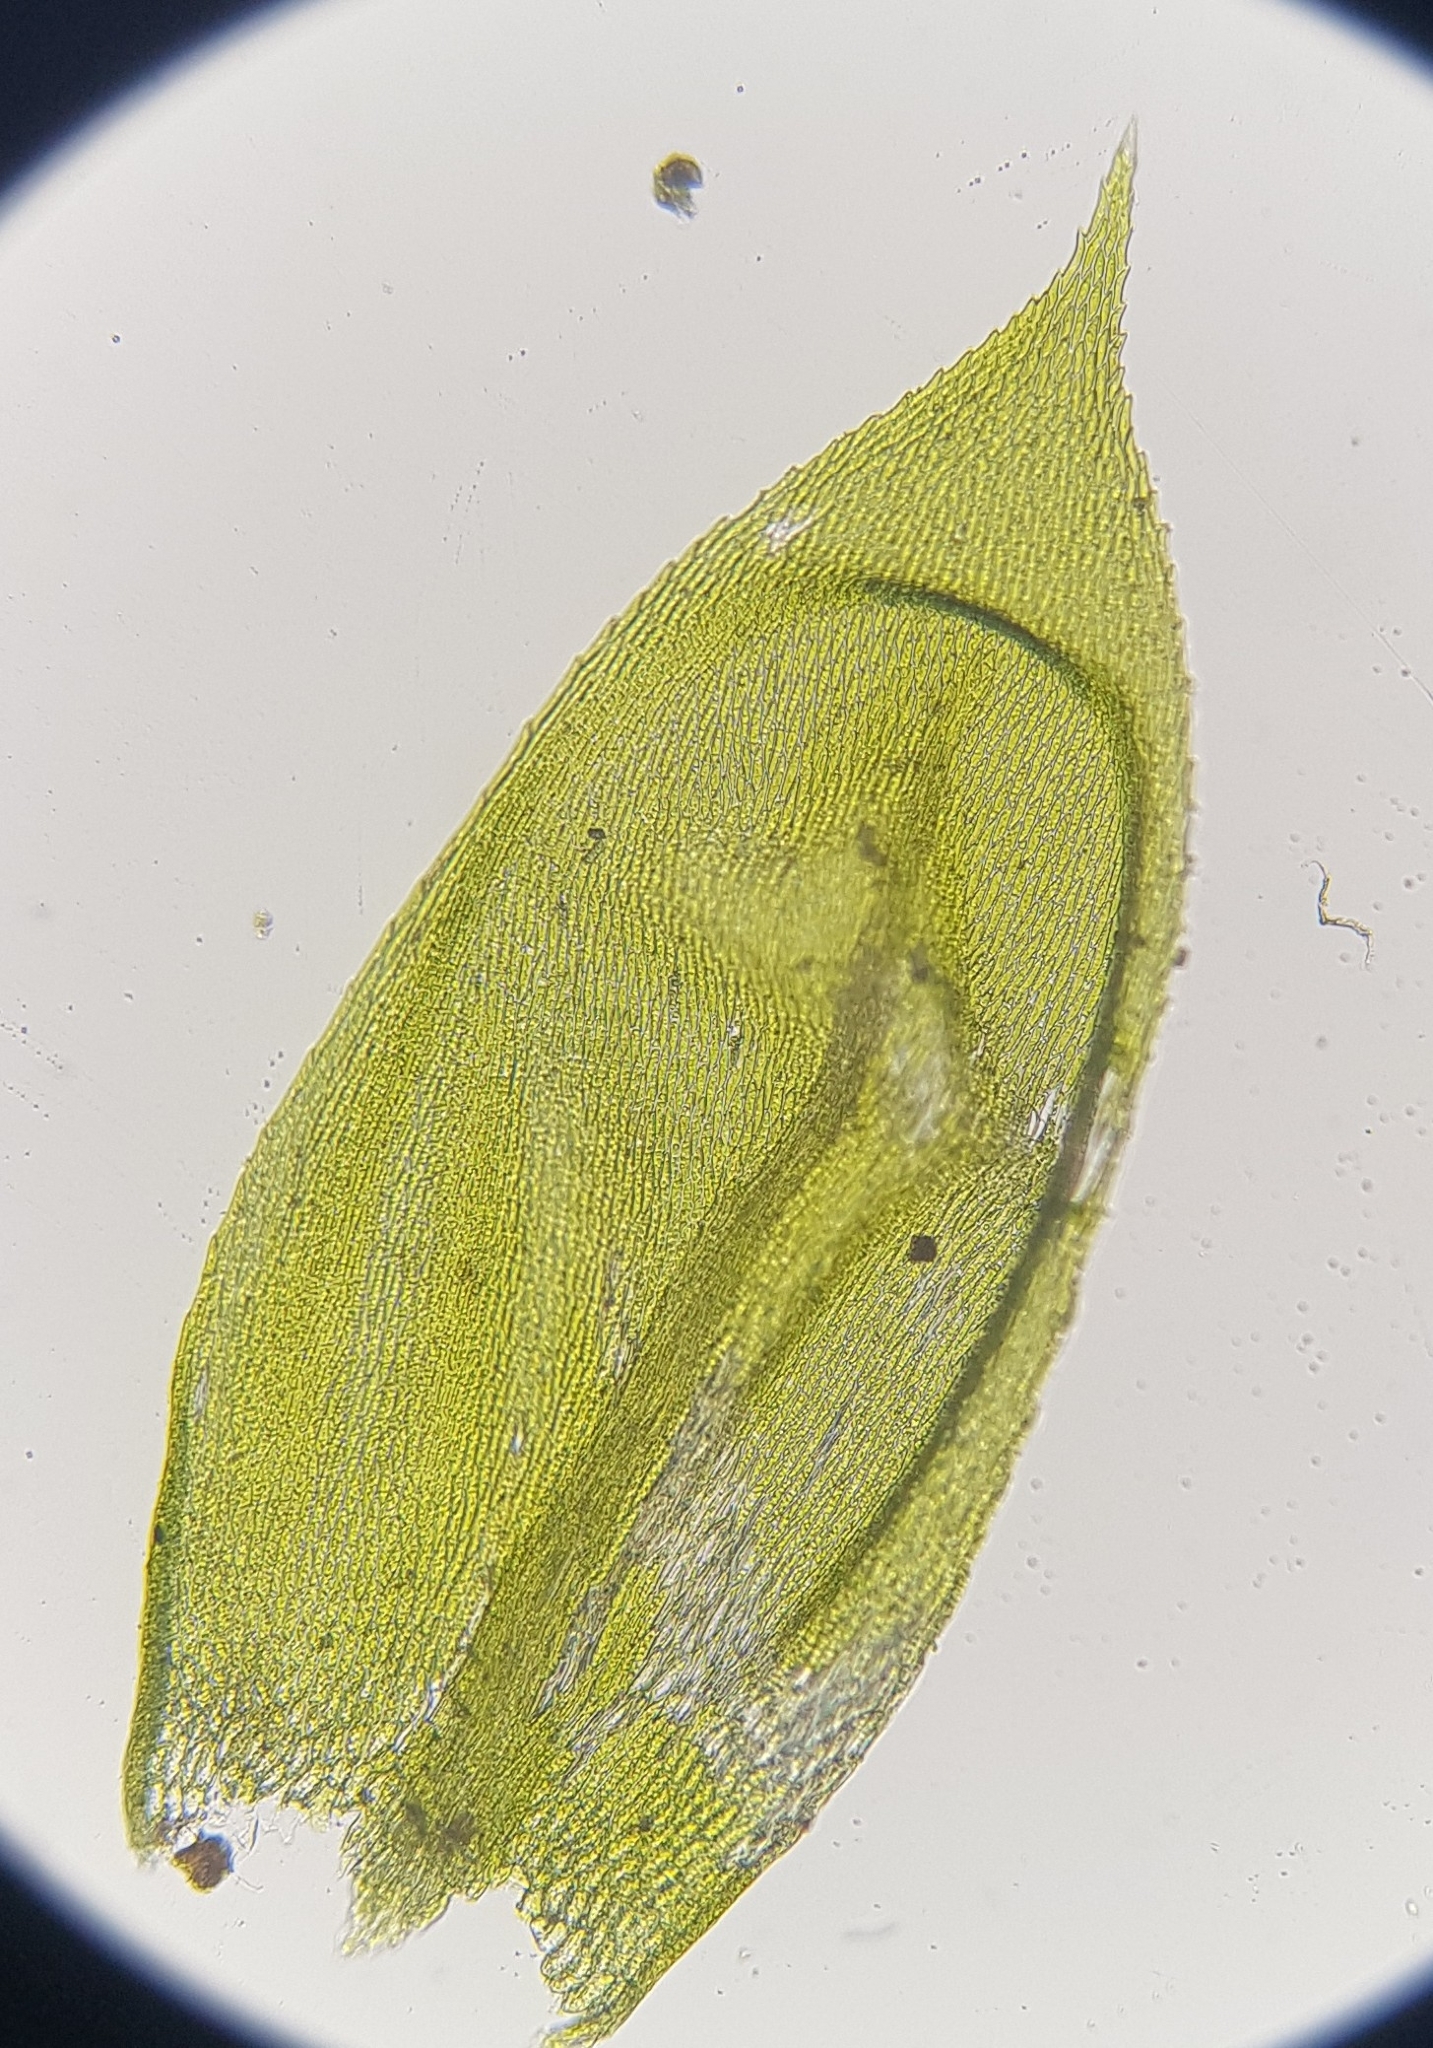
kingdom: Plantae
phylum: Bryophyta
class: Bryopsida
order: Hypnales
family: Brachytheciaceae
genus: Rhynchostegium
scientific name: Rhynchostegium confertum
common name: Clustered feather-moss
